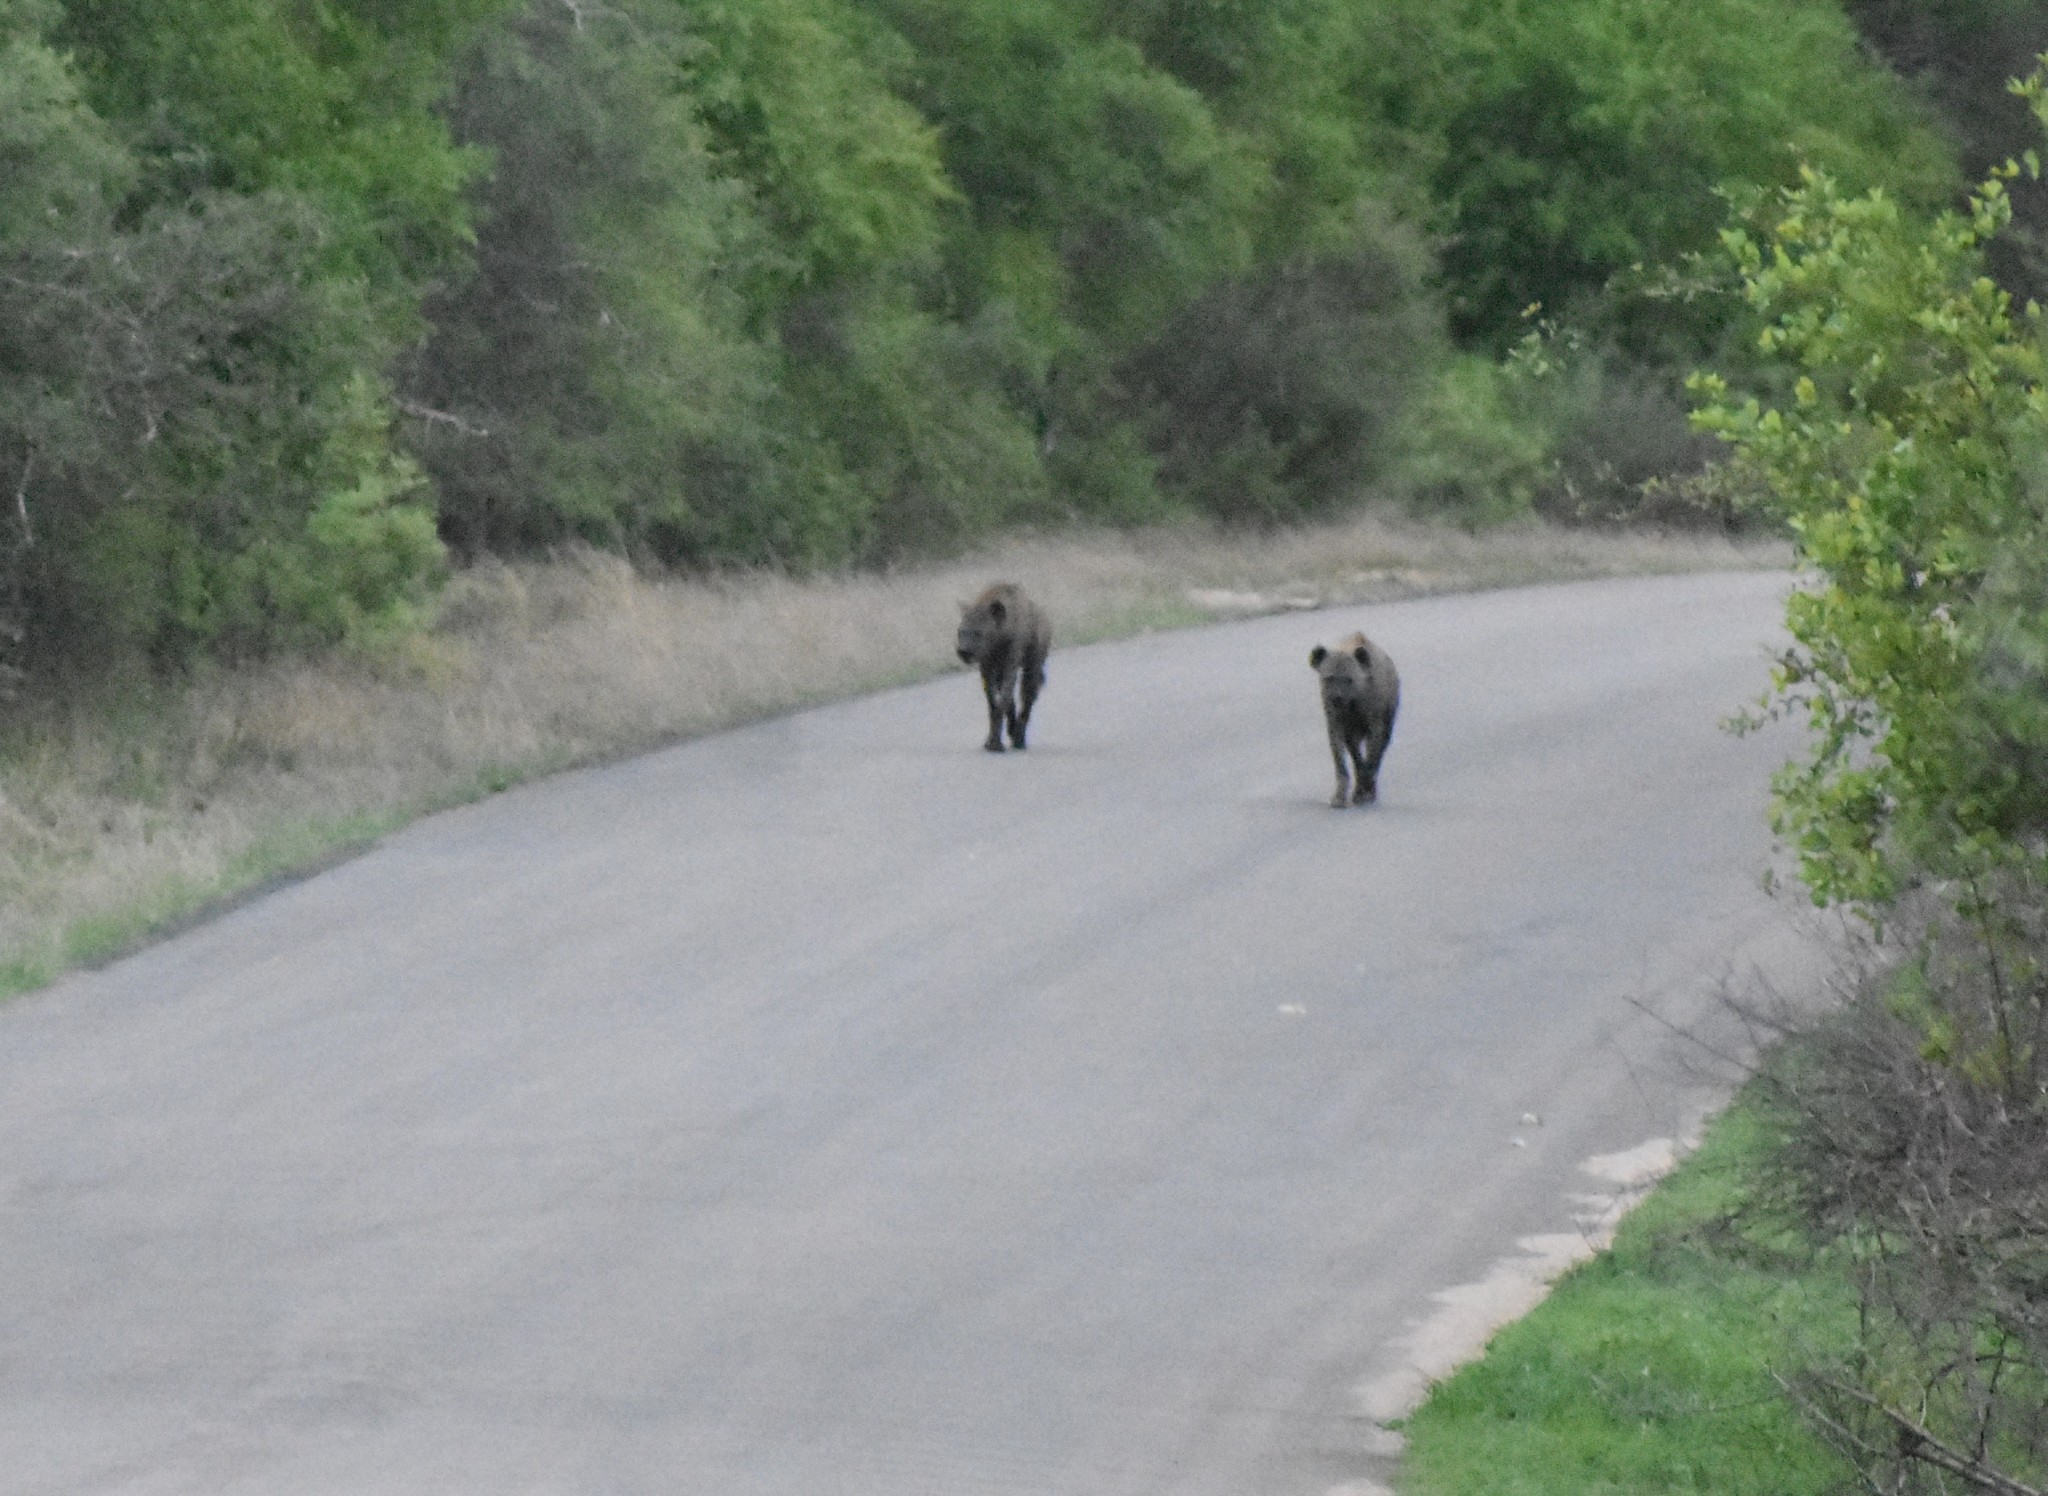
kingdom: Animalia
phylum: Chordata
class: Mammalia
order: Carnivora
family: Hyaenidae
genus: Crocuta
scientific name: Crocuta crocuta
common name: Spotted hyaena
